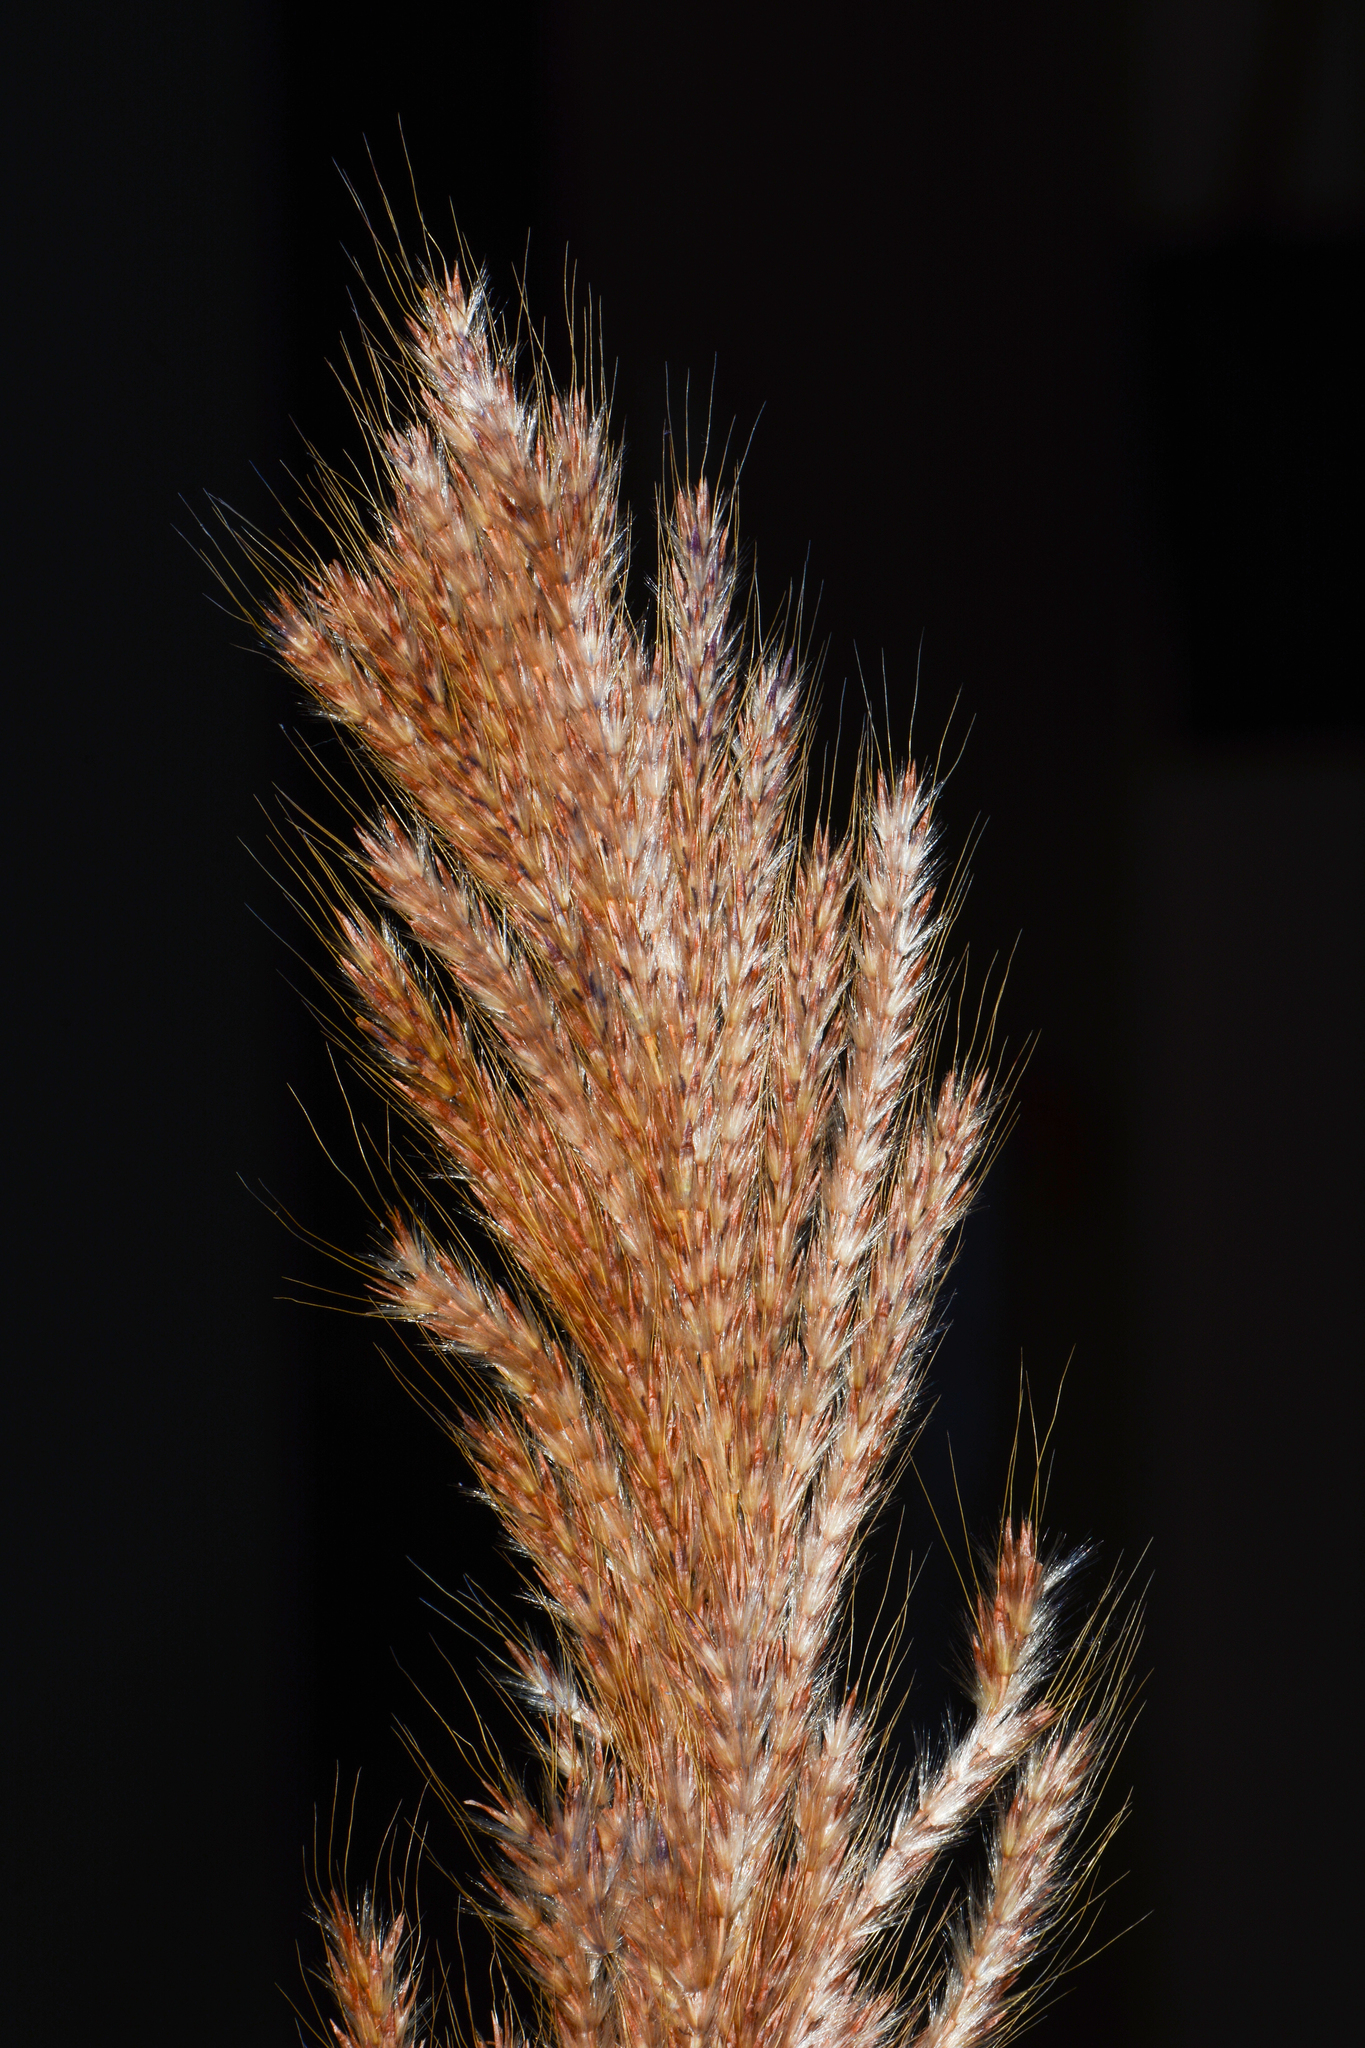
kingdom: Plantae
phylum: Tracheophyta
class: Liliopsida
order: Poales
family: Poaceae
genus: Saccharum
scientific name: Saccharum filifolium
